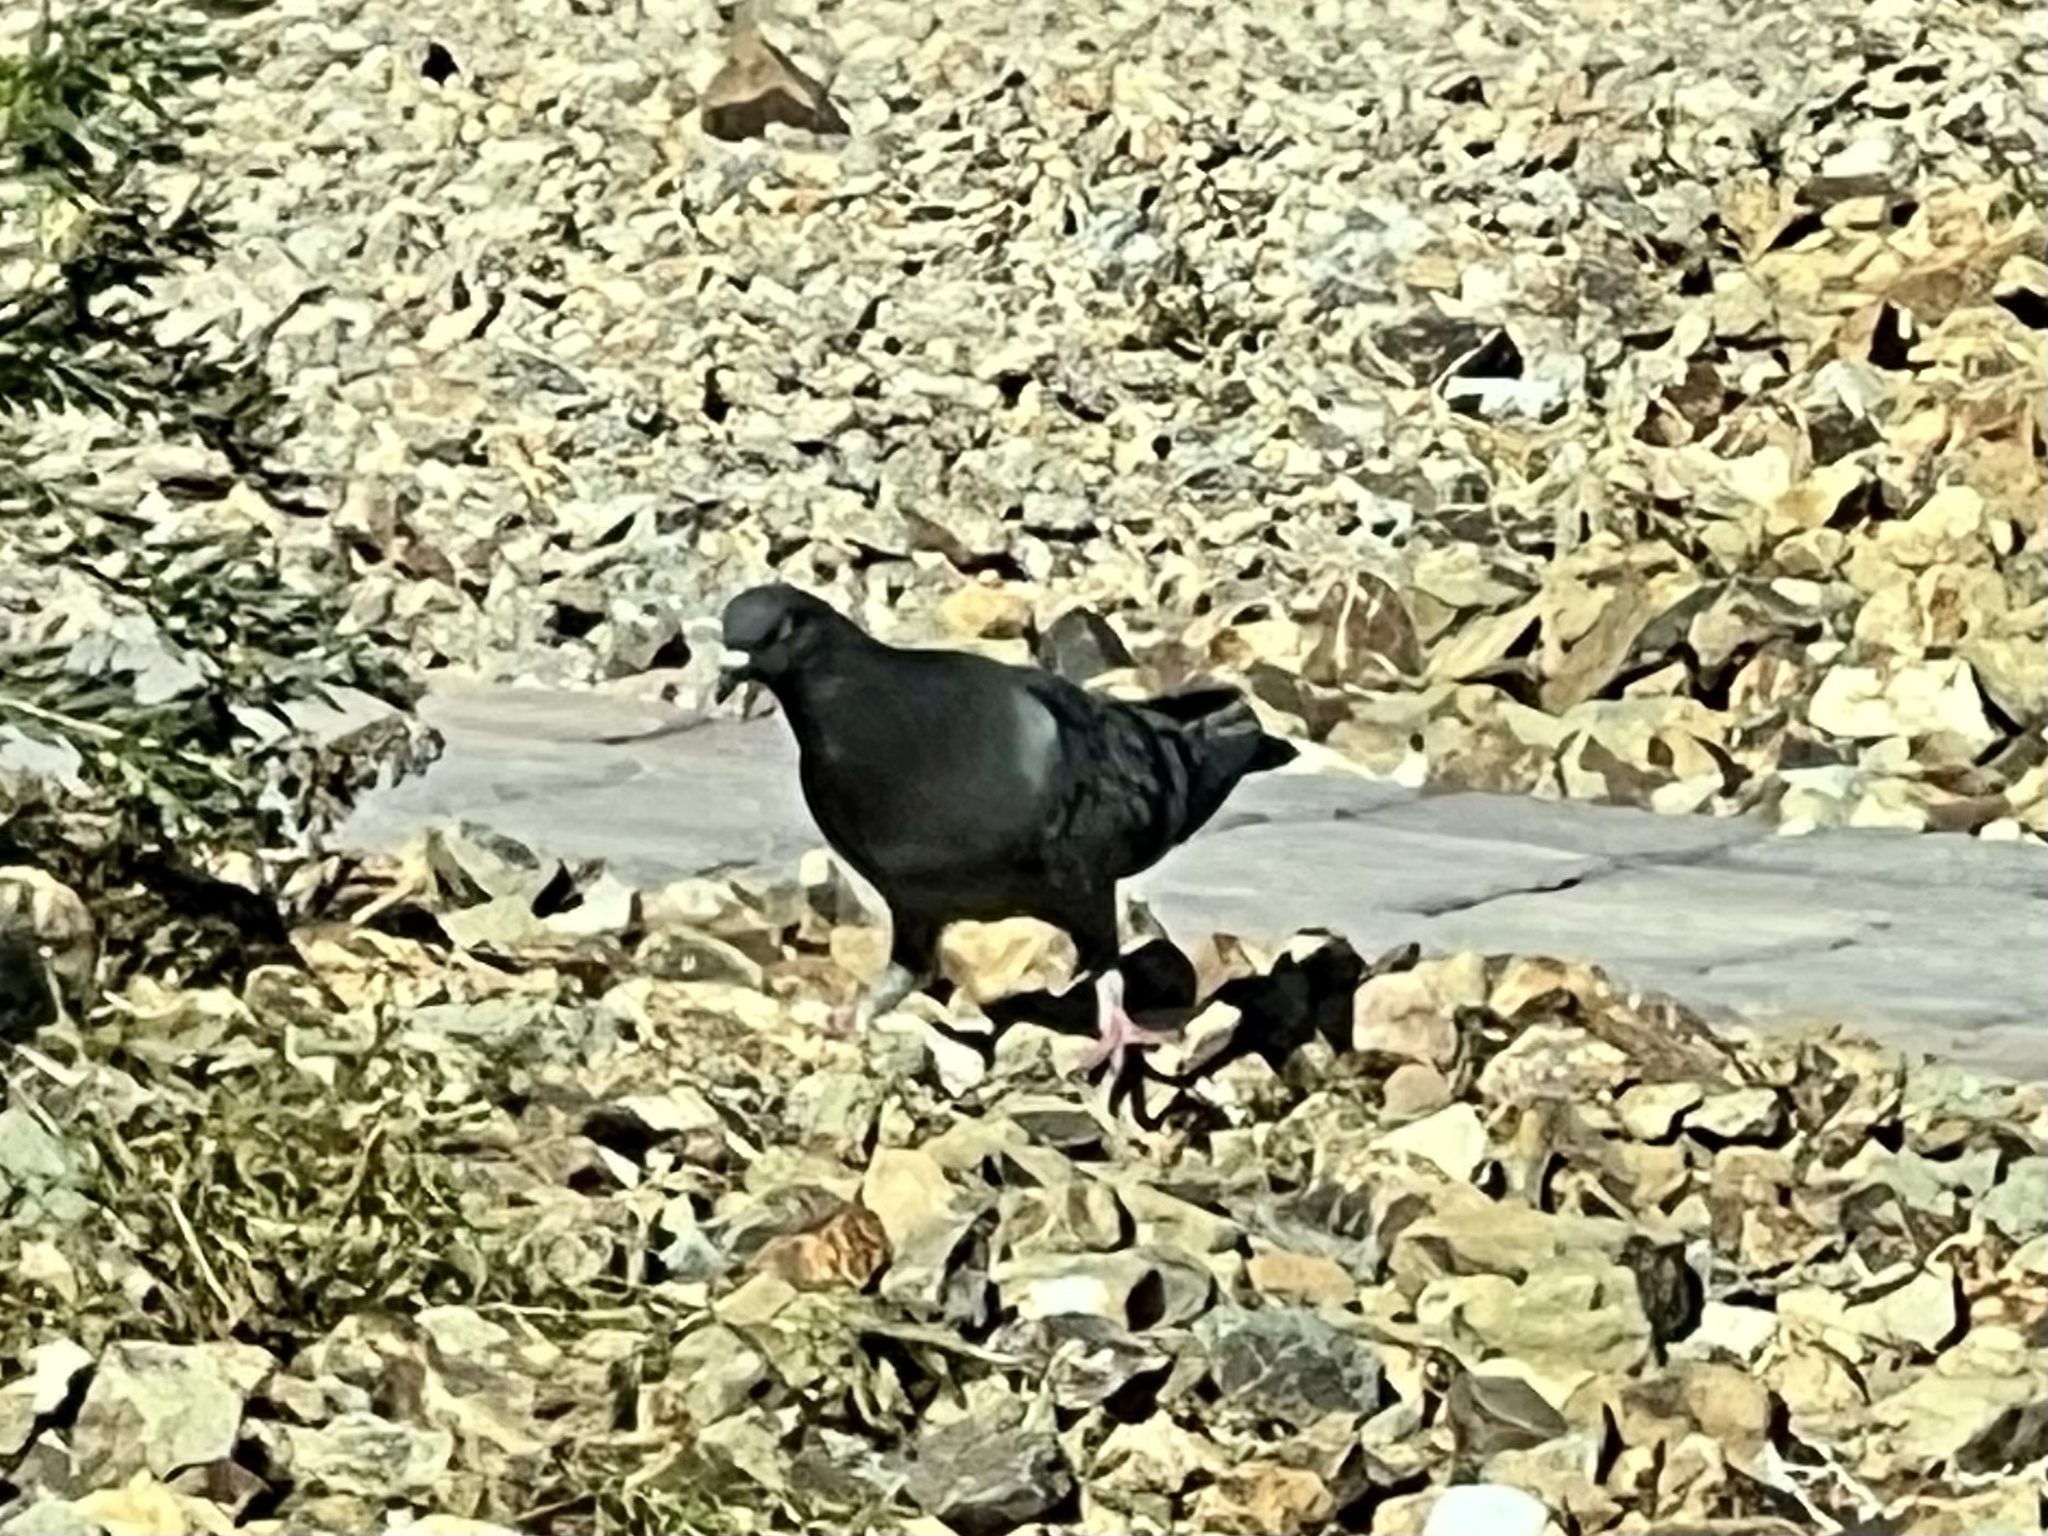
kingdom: Animalia
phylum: Chordata
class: Aves
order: Columbiformes
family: Columbidae
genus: Columba
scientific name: Columba livia
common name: Rock pigeon
